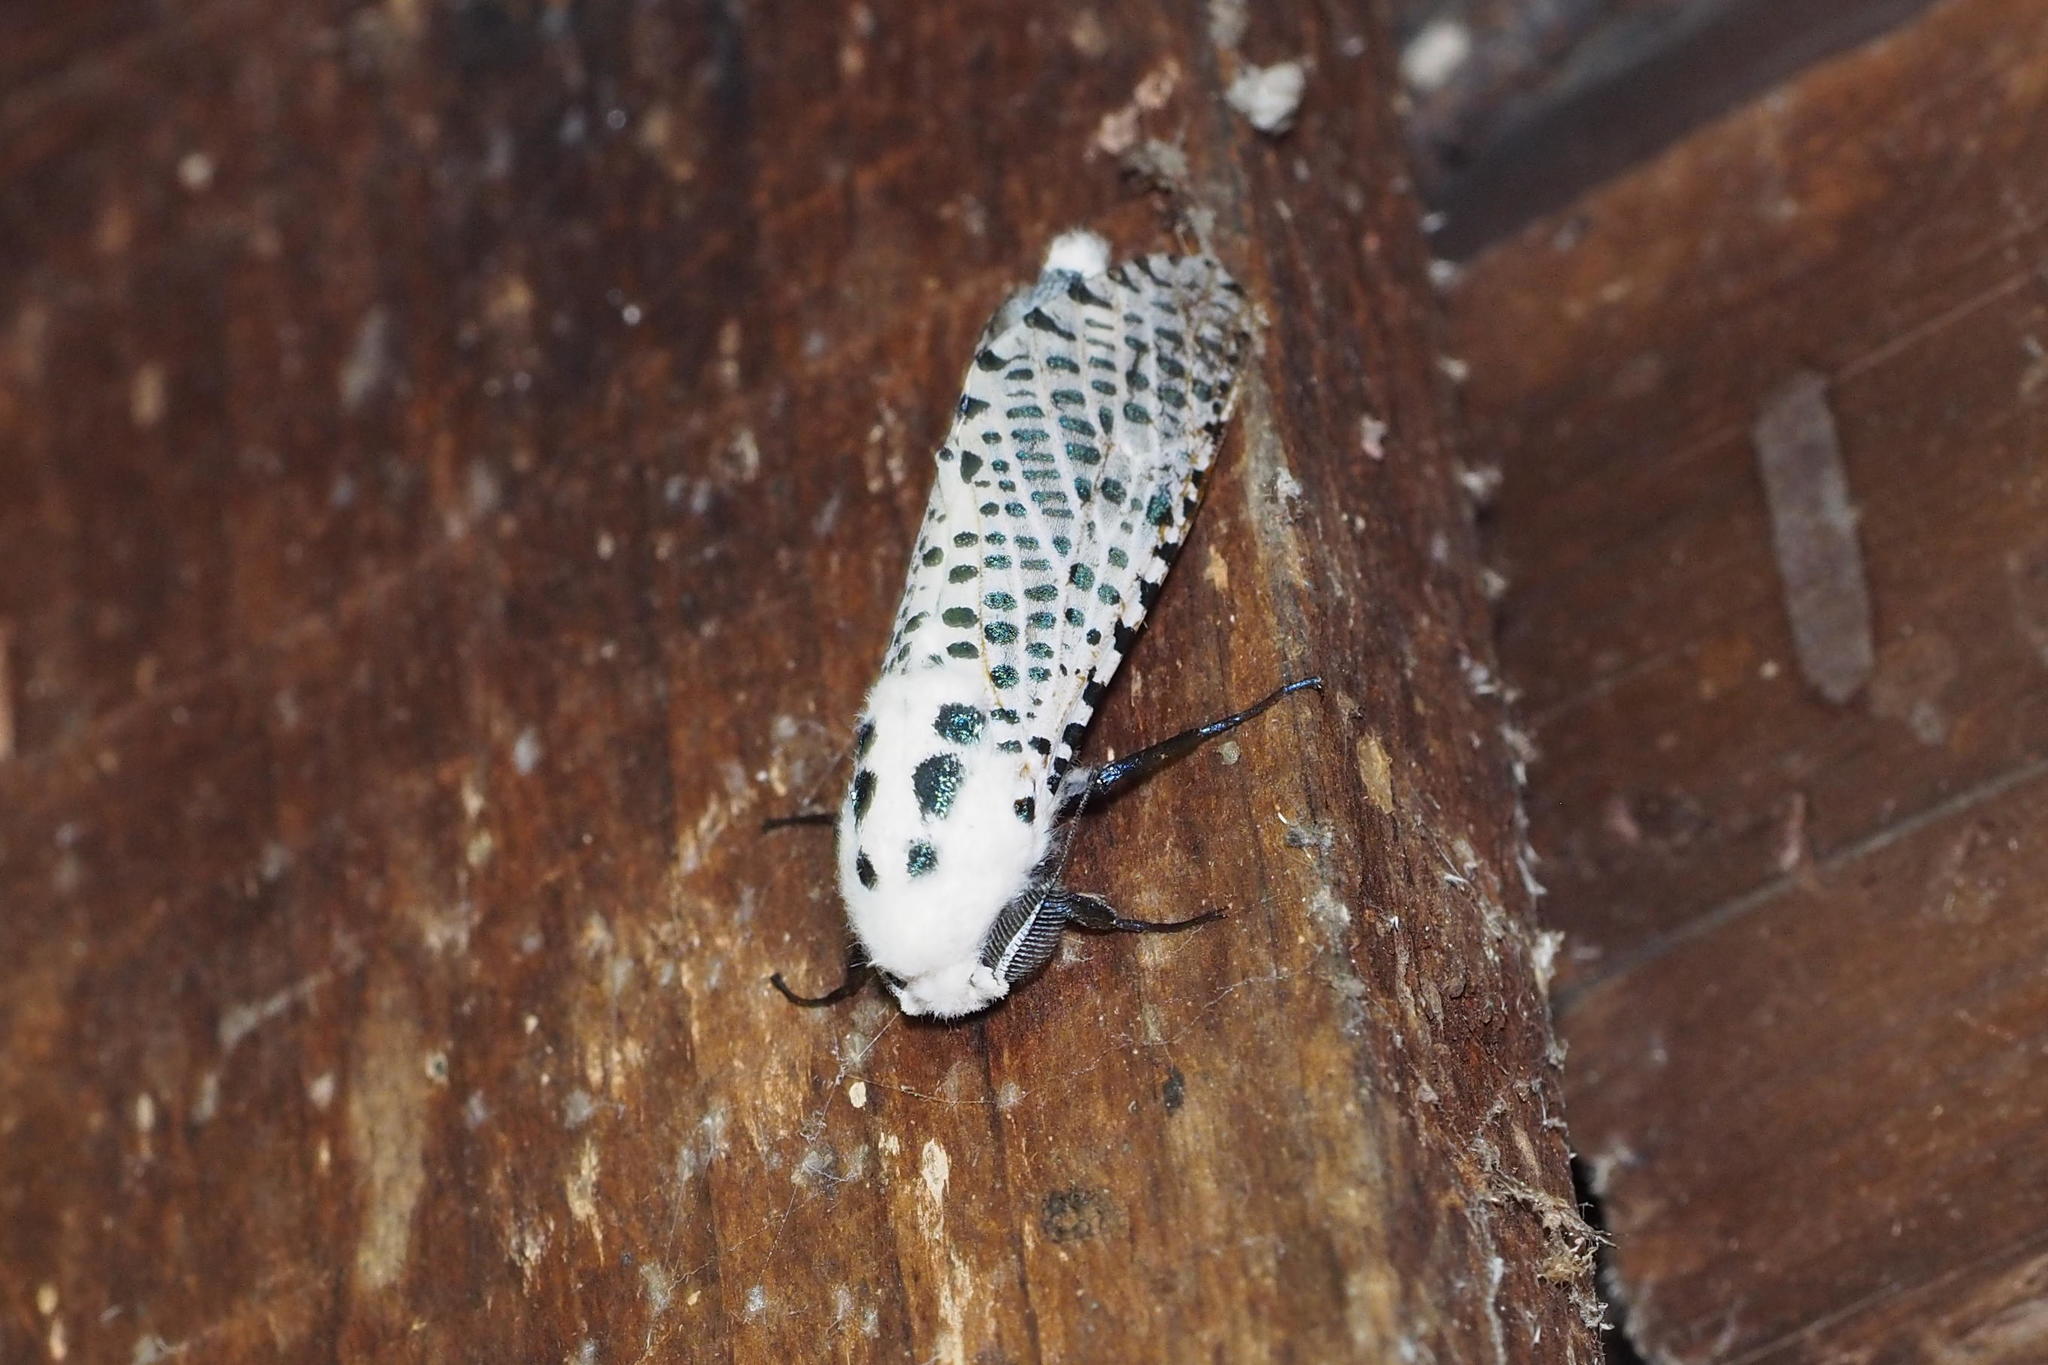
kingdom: Animalia
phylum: Arthropoda
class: Insecta
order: Lepidoptera
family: Cossidae
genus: Zeuzera
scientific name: Zeuzera multistrigata
